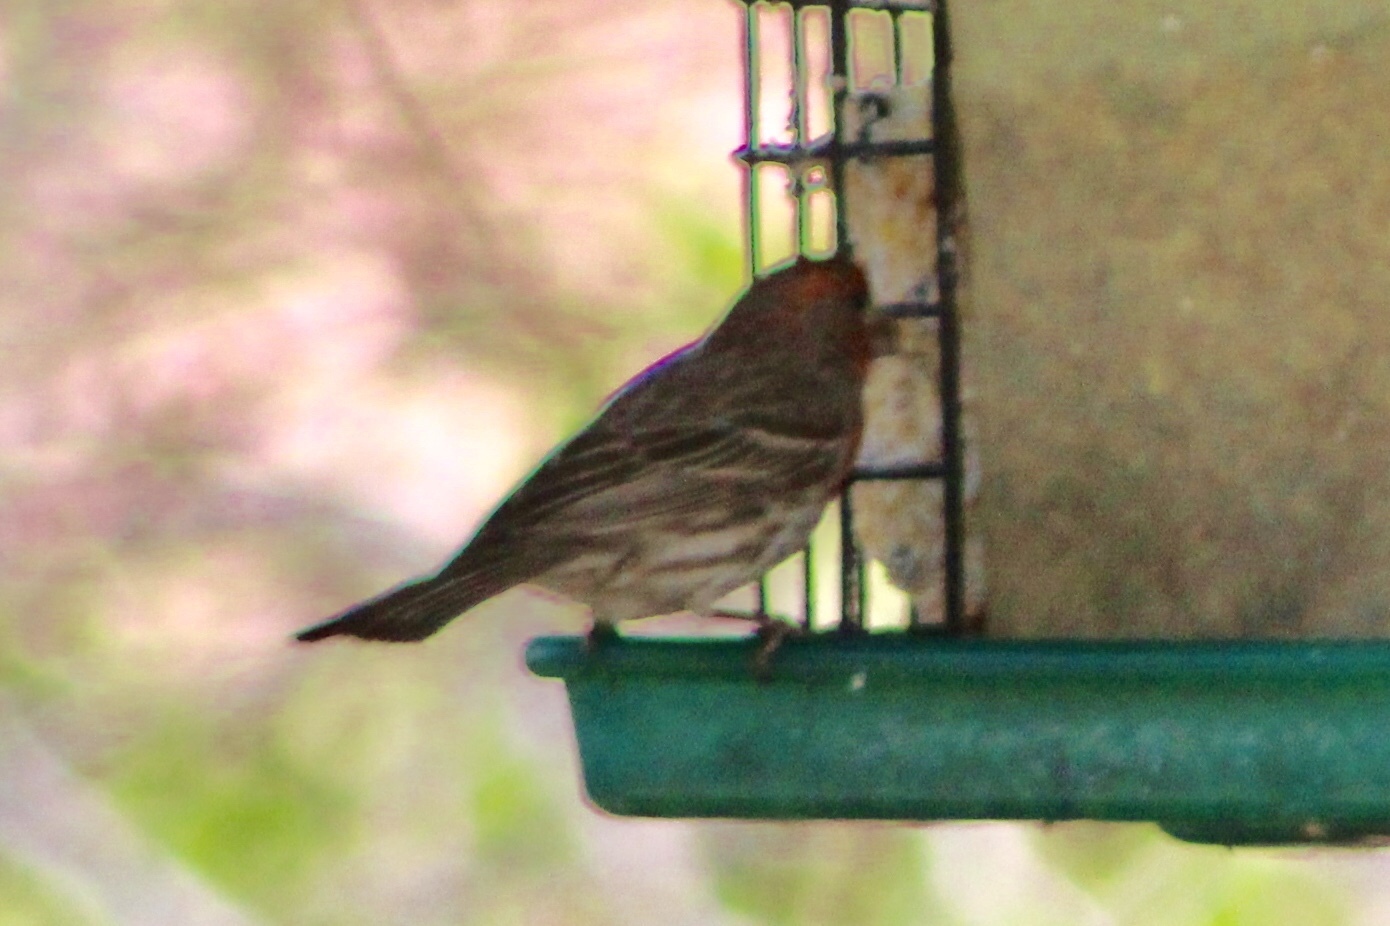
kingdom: Animalia
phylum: Chordata
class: Aves
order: Passeriformes
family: Fringillidae
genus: Haemorhous
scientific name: Haemorhous mexicanus
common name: House finch
